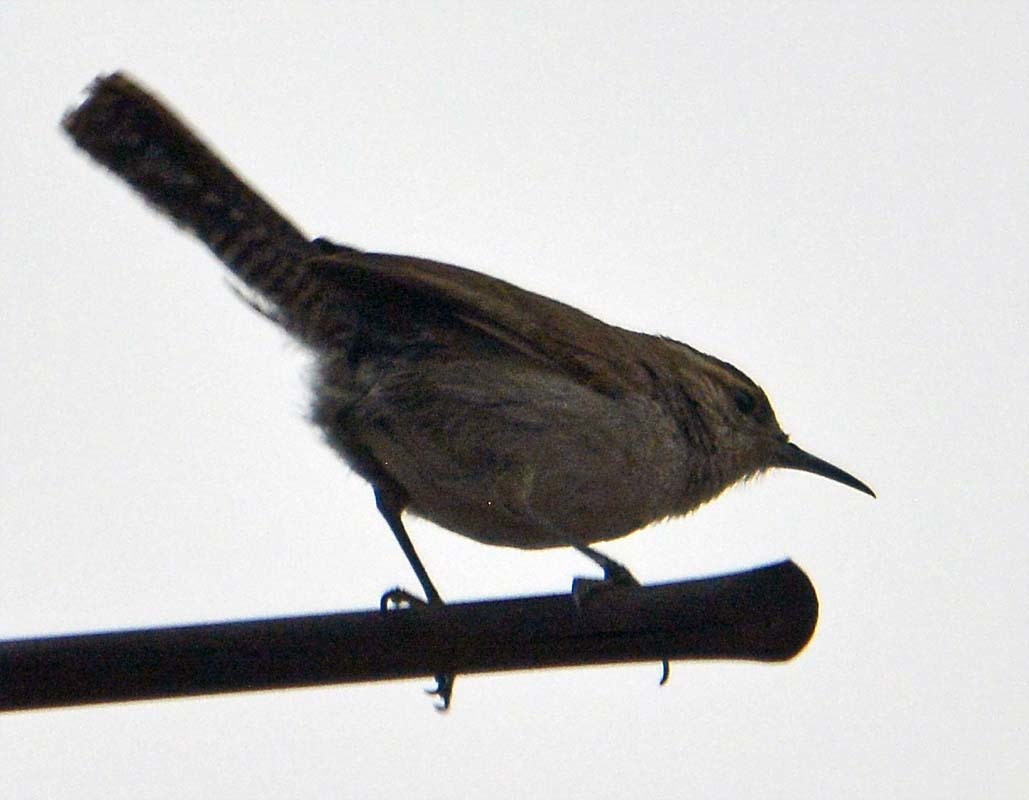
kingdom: Animalia
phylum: Chordata
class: Aves
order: Passeriformes
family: Troglodytidae
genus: Thryomanes
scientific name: Thryomanes bewickii
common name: Bewick's wren
